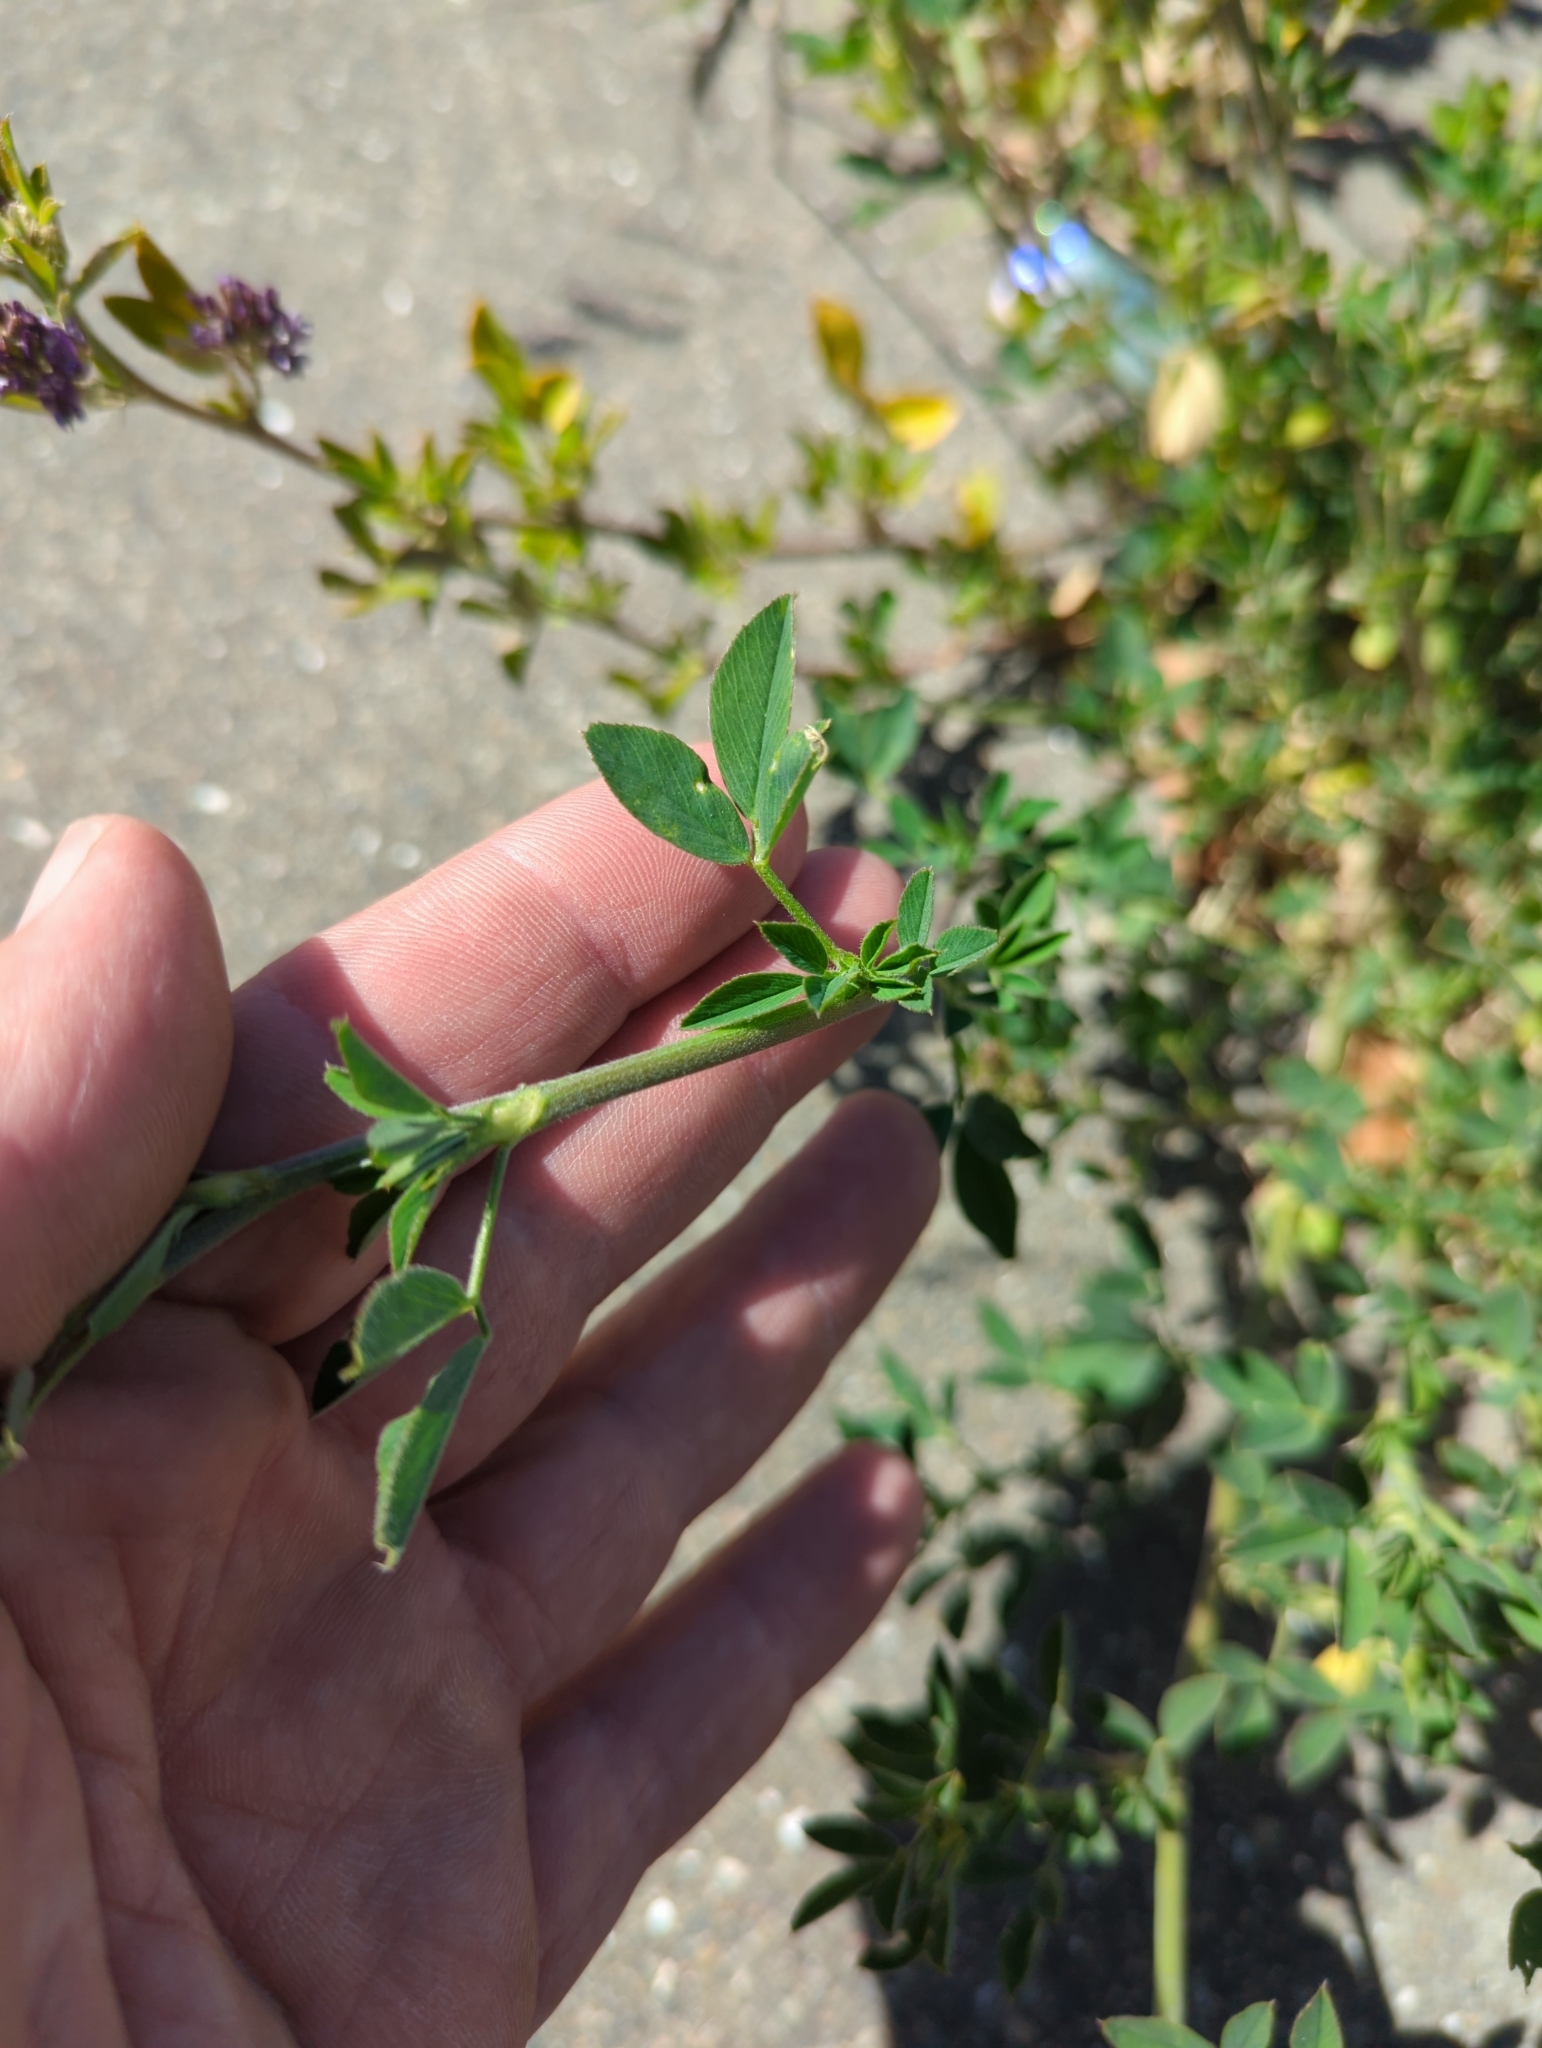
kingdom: Plantae
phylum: Tracheophyta
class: Magnoliopsida
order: Fabales
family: Fabaceae
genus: Medicago
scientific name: Medicago sativa
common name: Alfalfa
